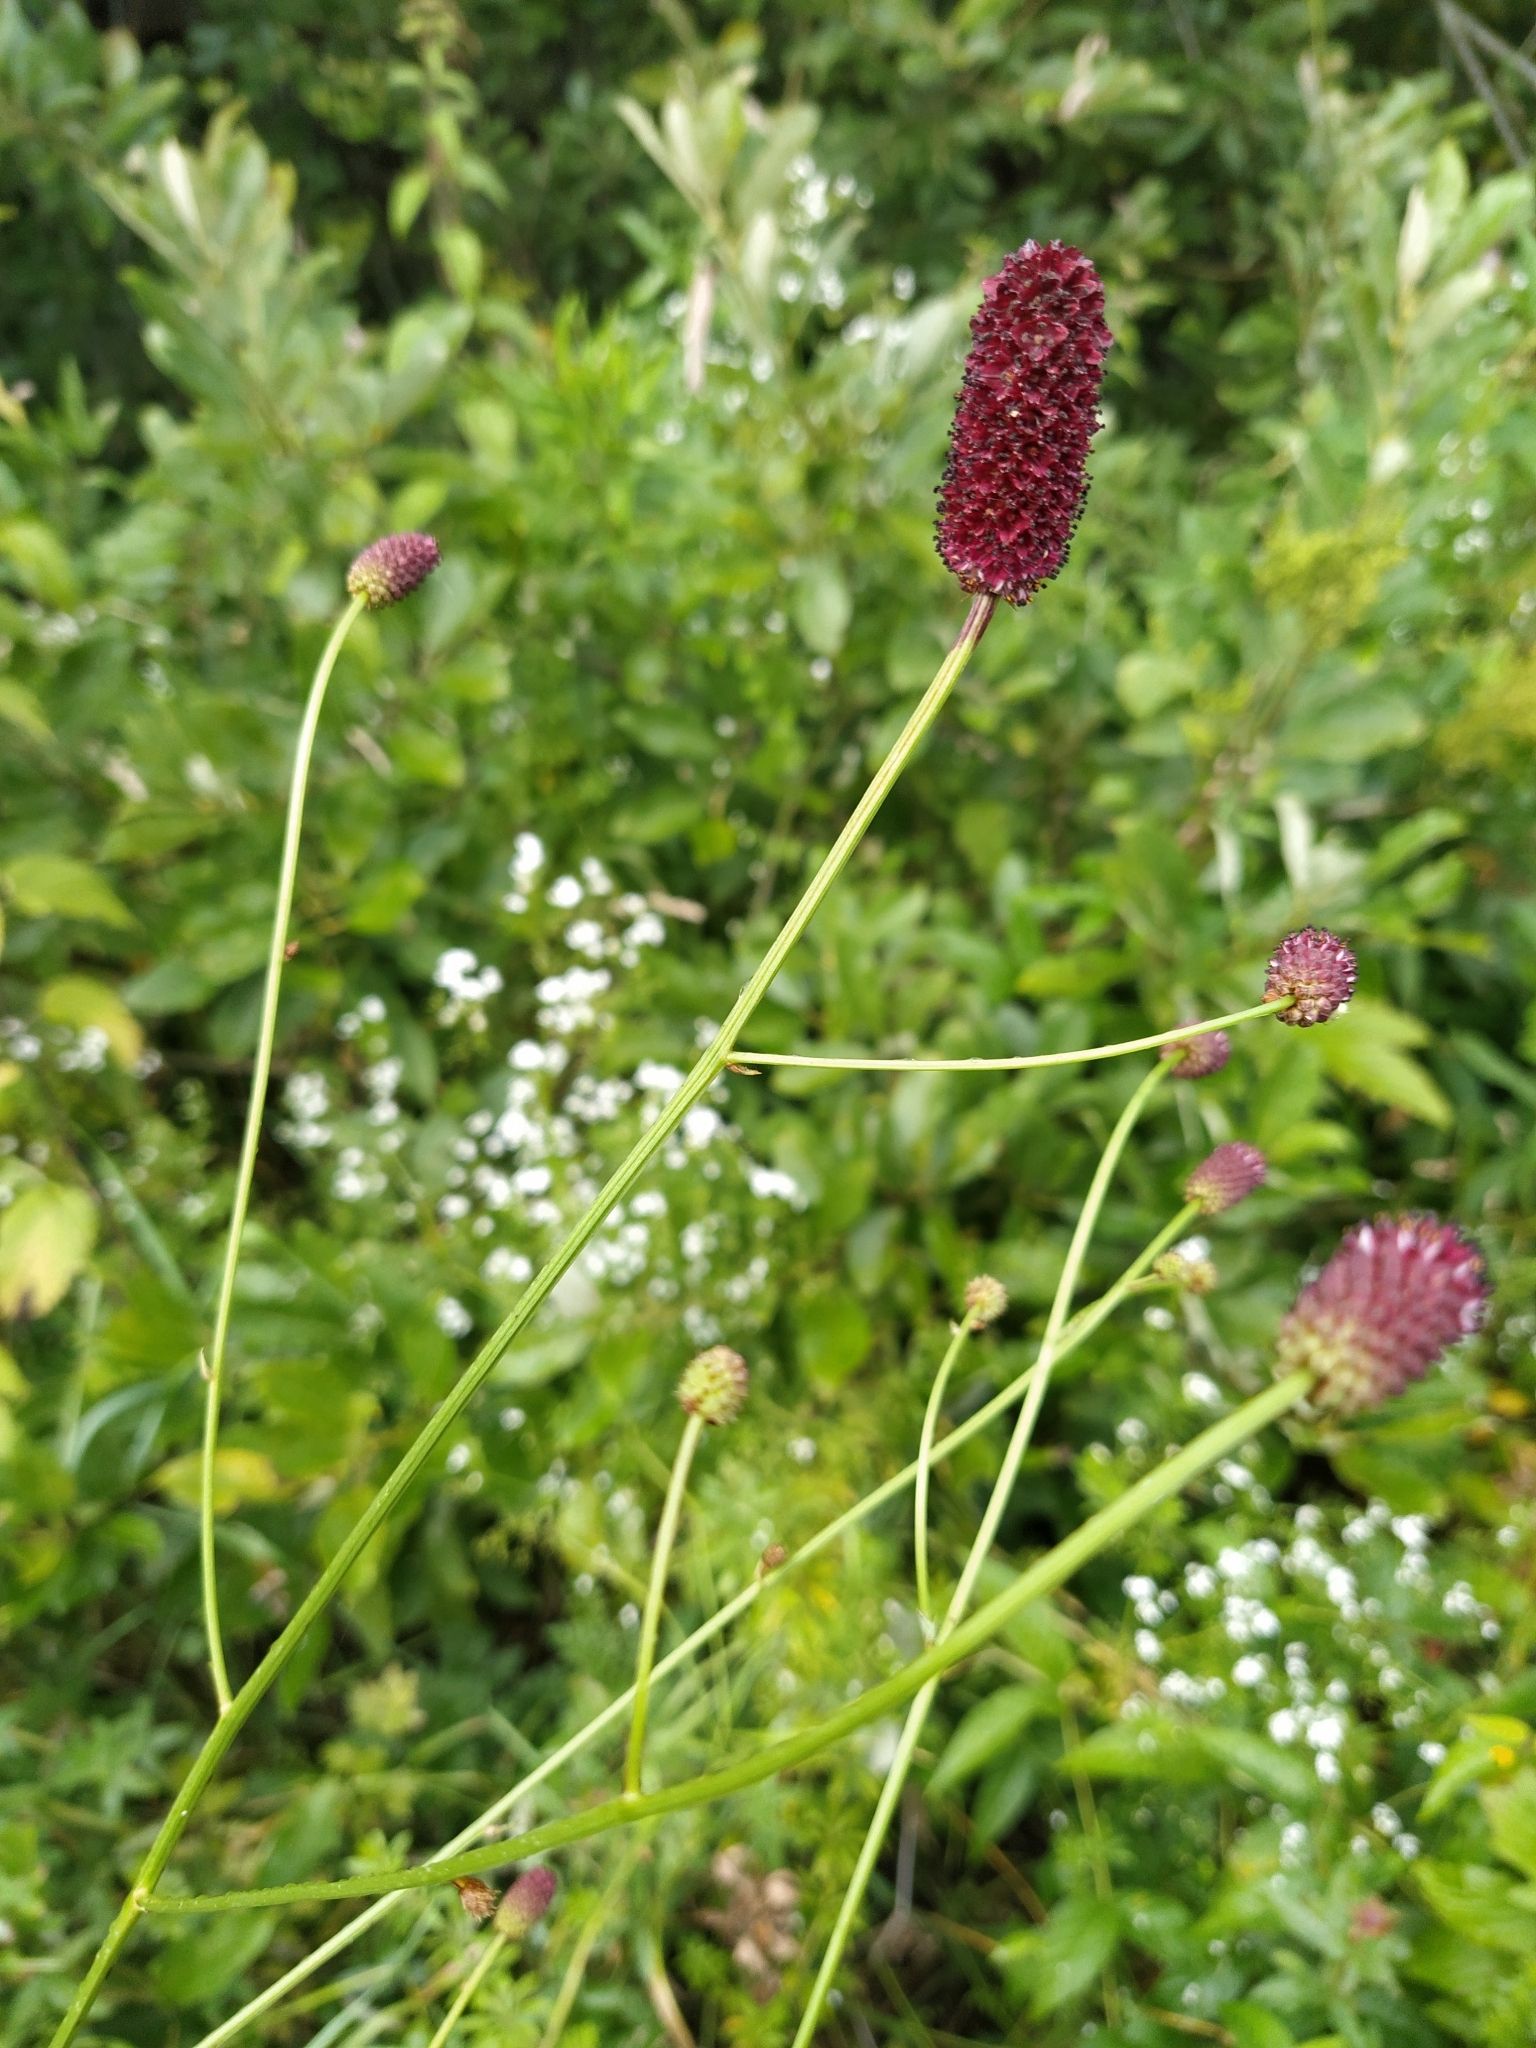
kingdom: Plantae
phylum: Tracheophyta
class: Magnoliopsida
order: Rosales
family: Rosaceae
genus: Sanguisorba
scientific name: Sanguisorba officinalis
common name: Great burnet
